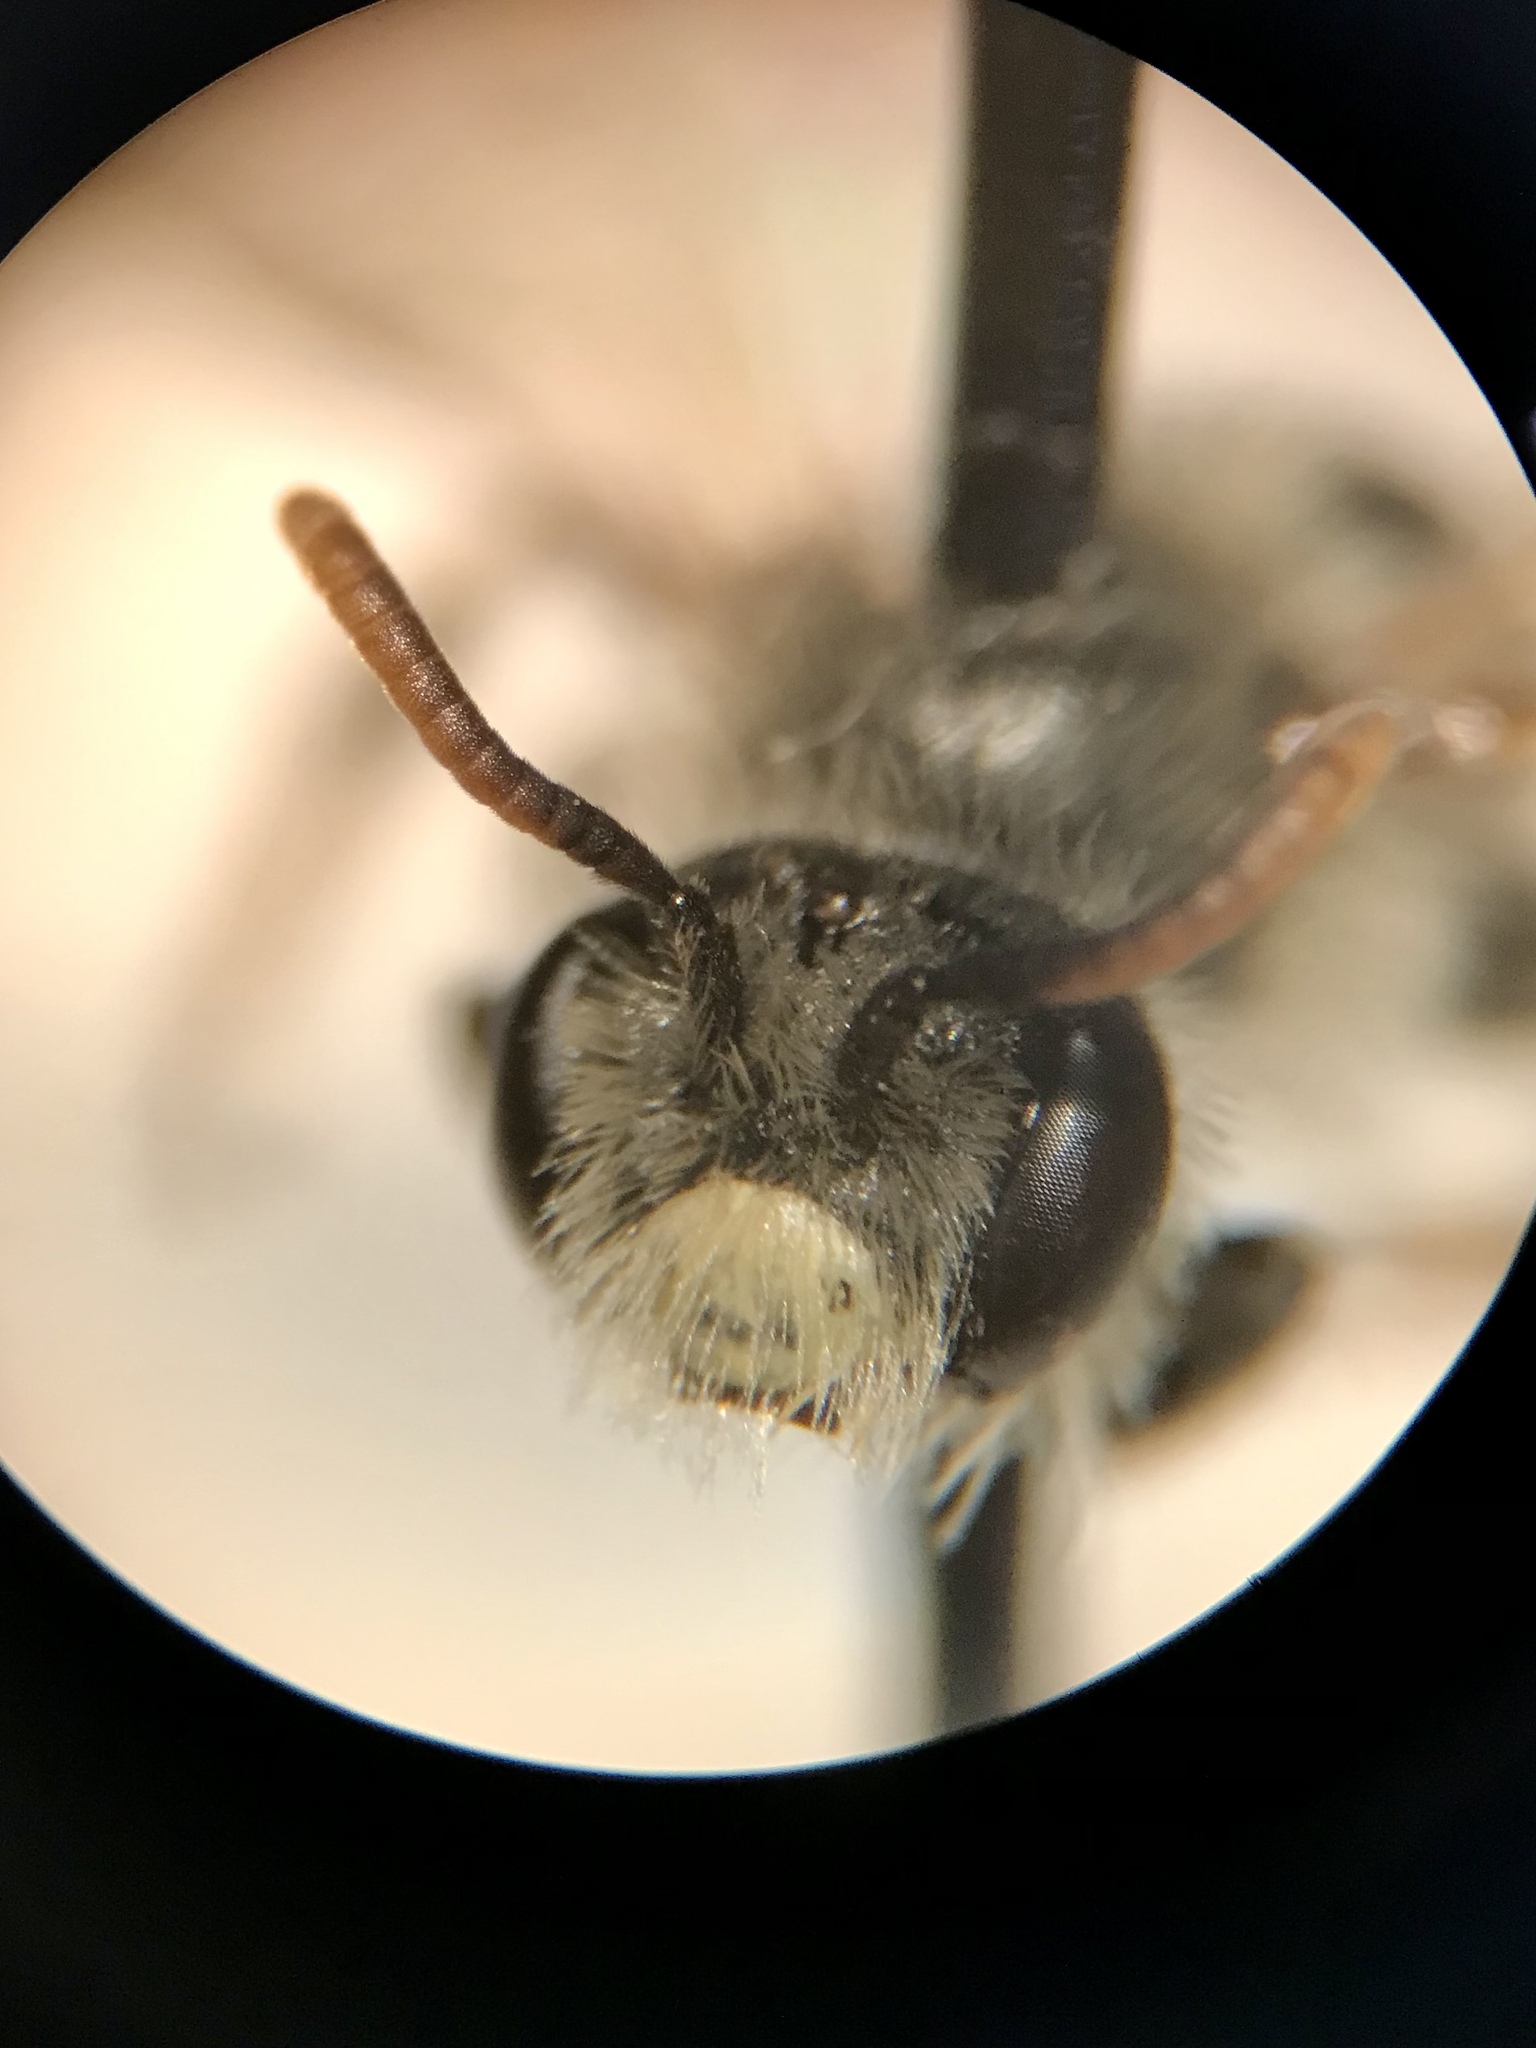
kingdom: Animalia
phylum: Arthropoda
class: Insecta
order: Hymenoptera
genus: Micrandrena
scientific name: Micrandrena
